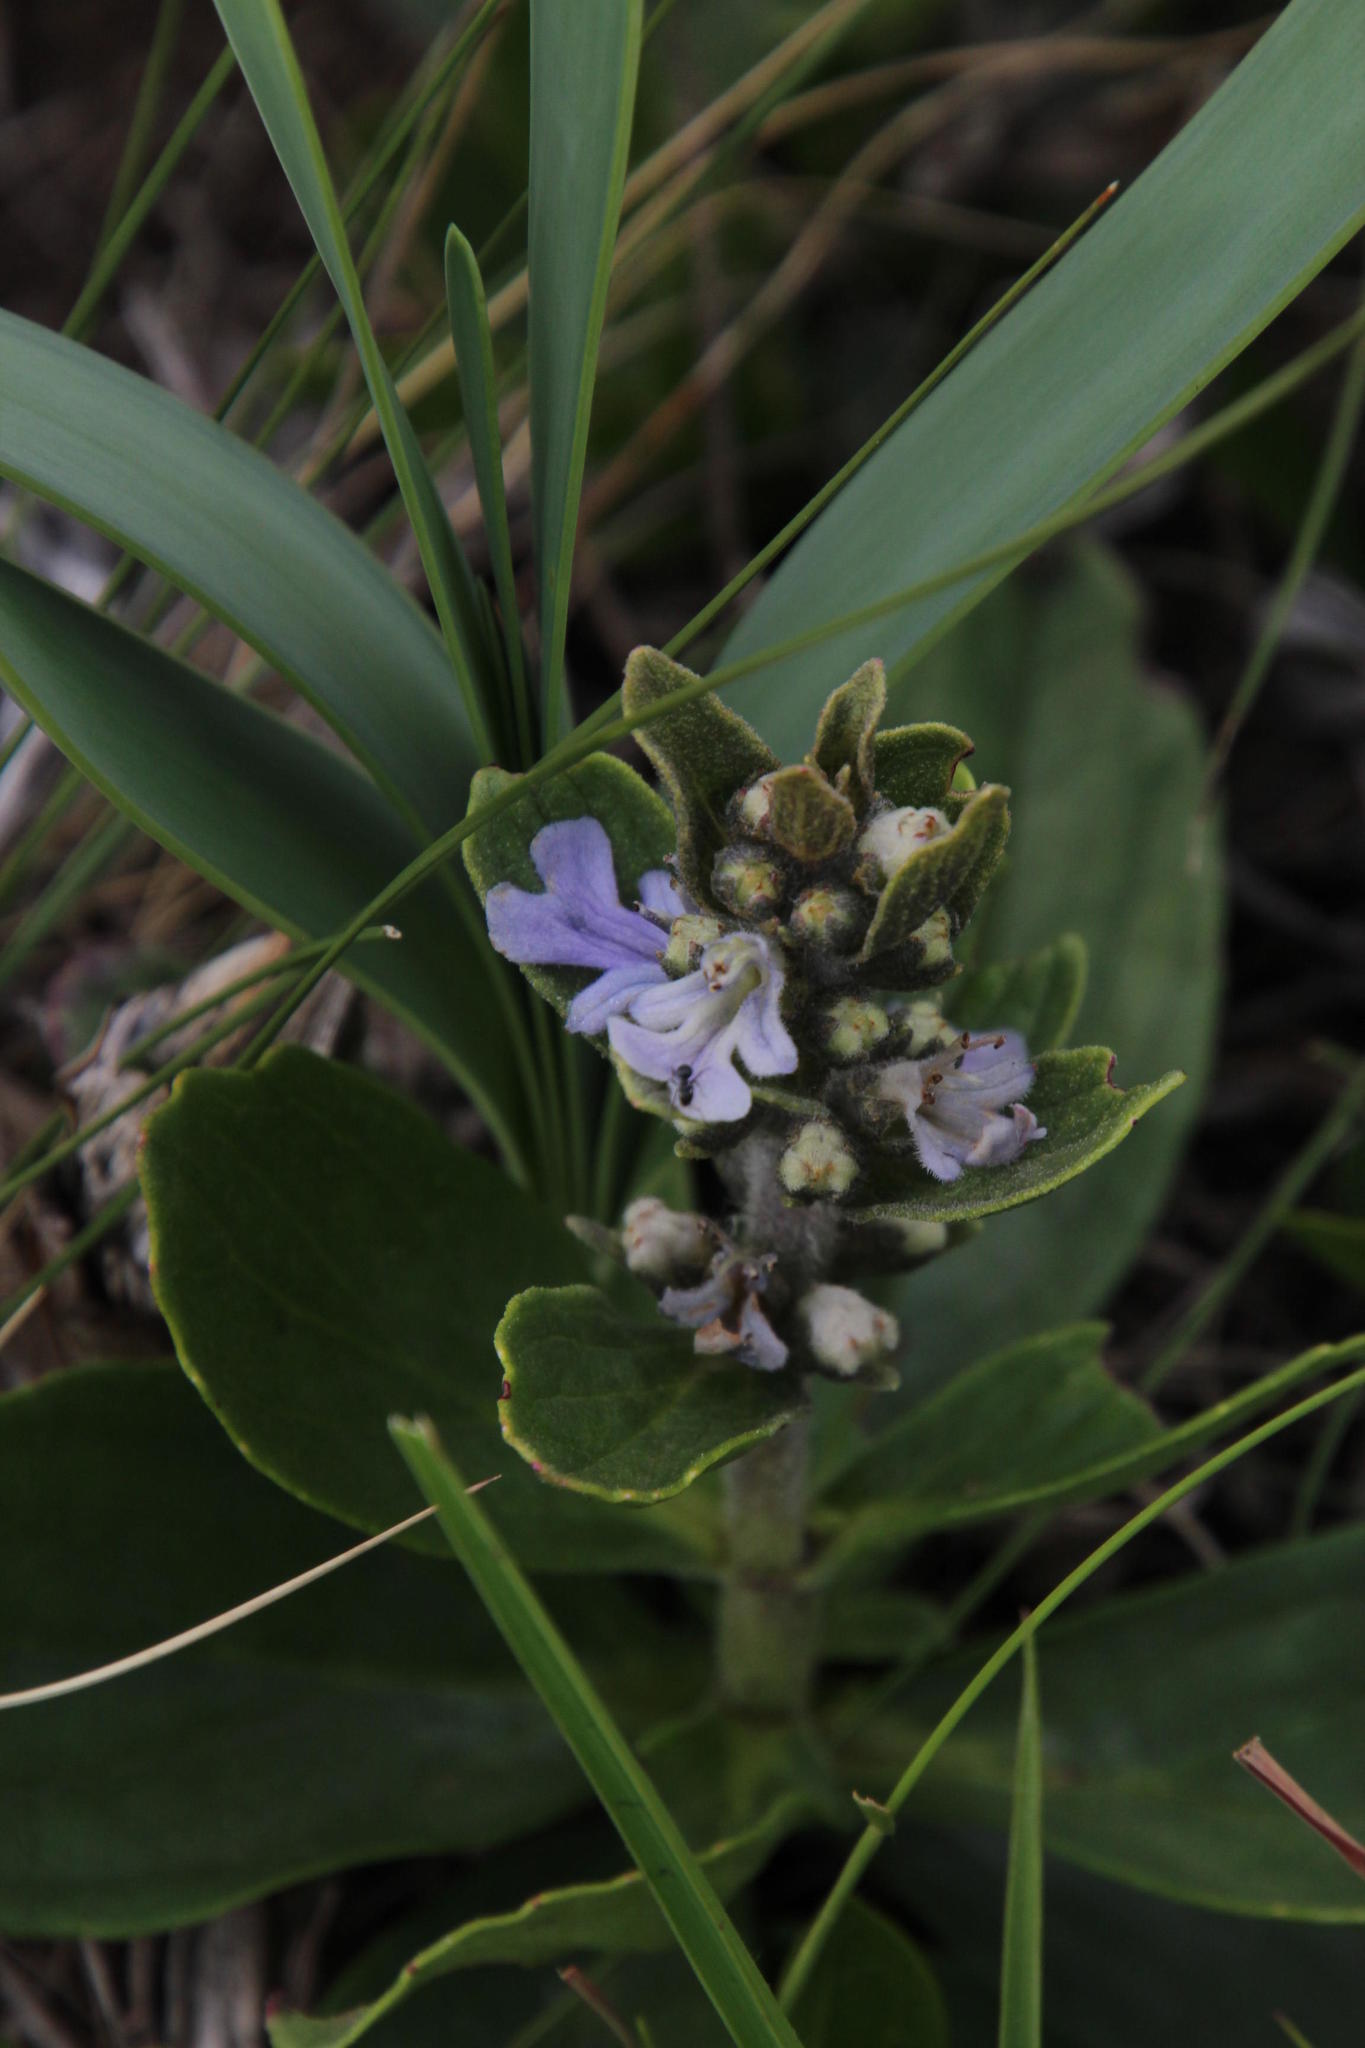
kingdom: Plantae
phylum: Tracheophyta
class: Magnoliopsida
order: Lamiales
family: Lamiaceae
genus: Ajuga
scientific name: Ajuga ophrydis
